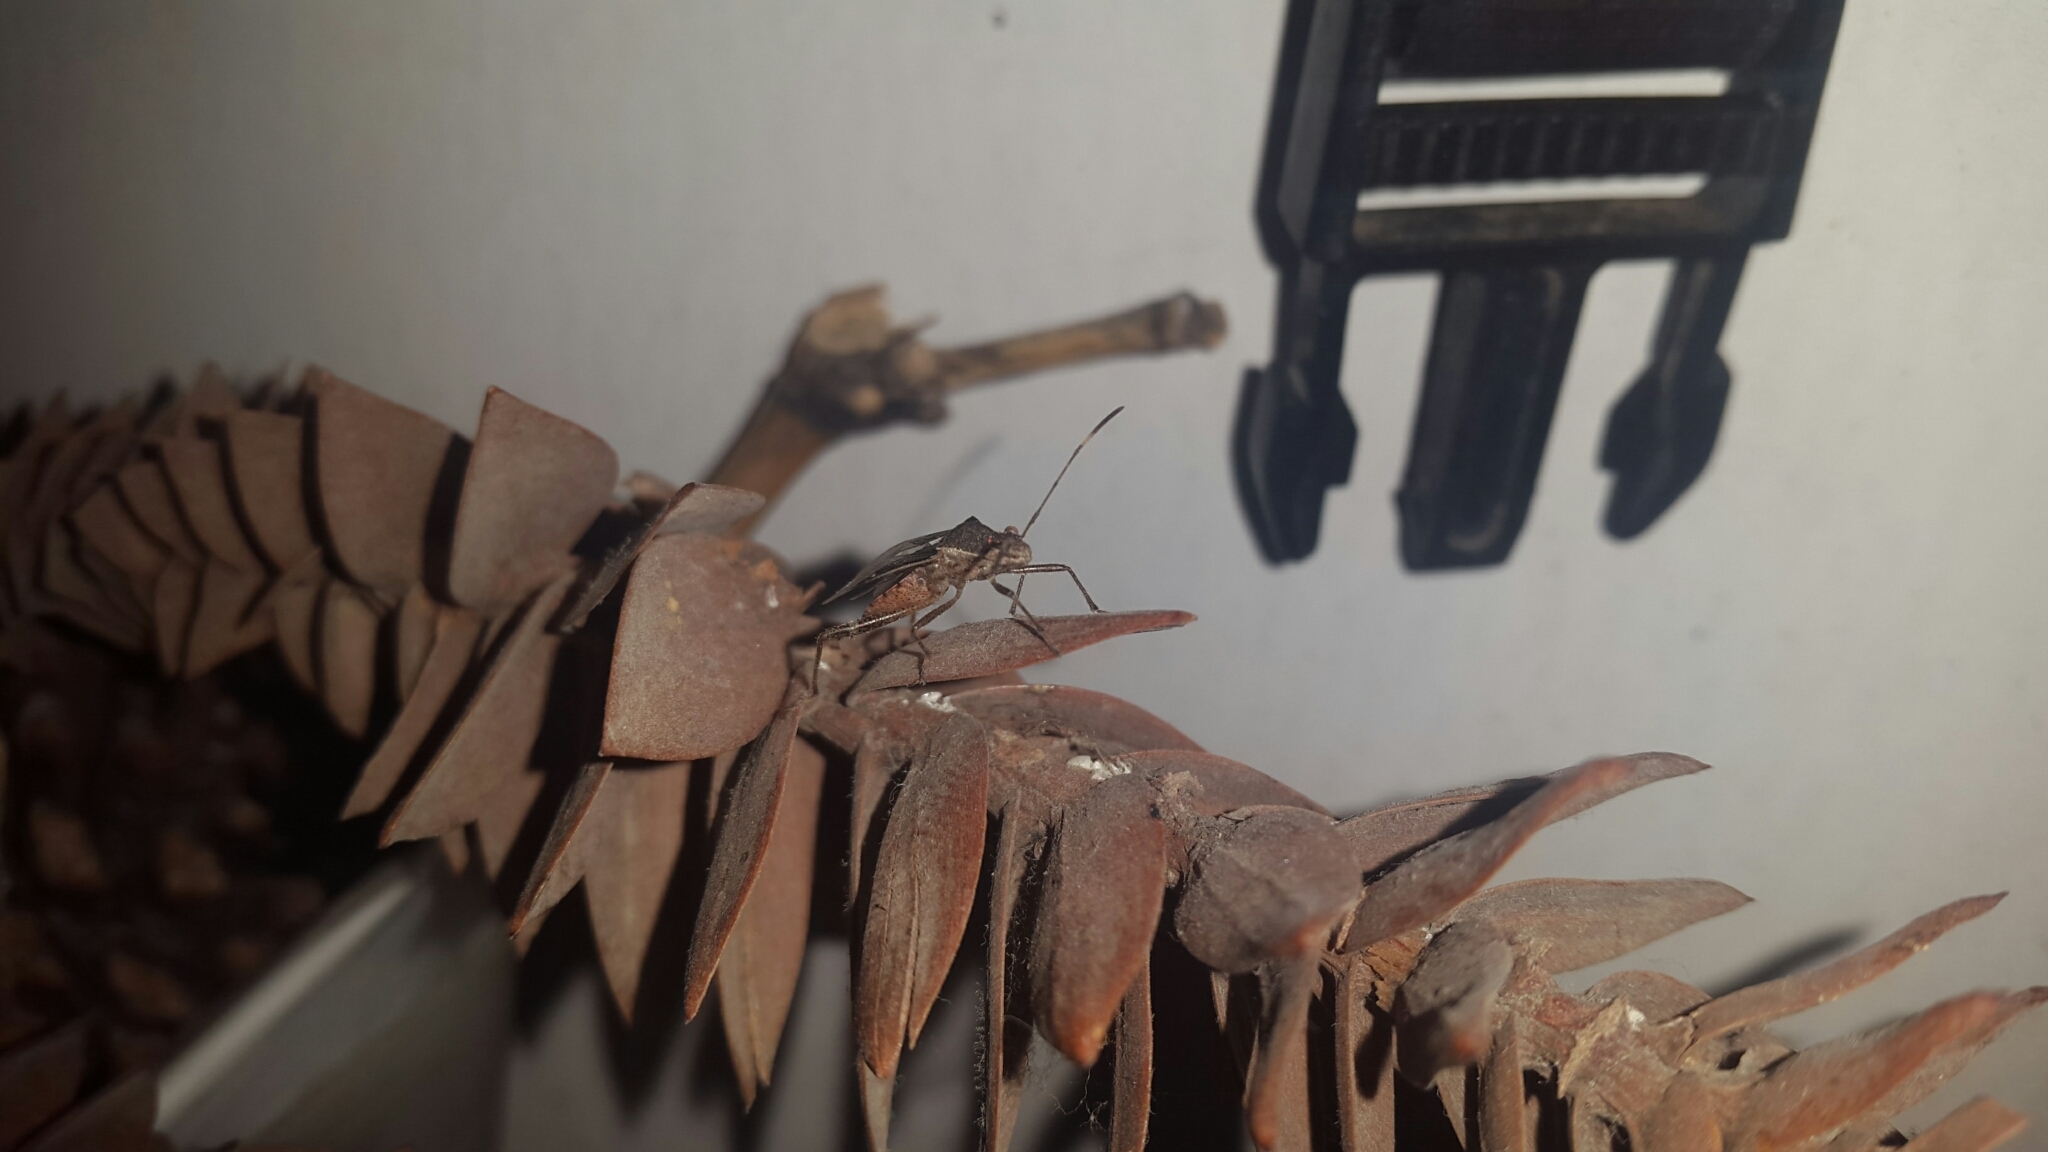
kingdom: Animalia
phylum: Arthropoda
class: Insecta
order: Hemiptera
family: Alydidae
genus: Burtinus
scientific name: Burtinus notatipennis
